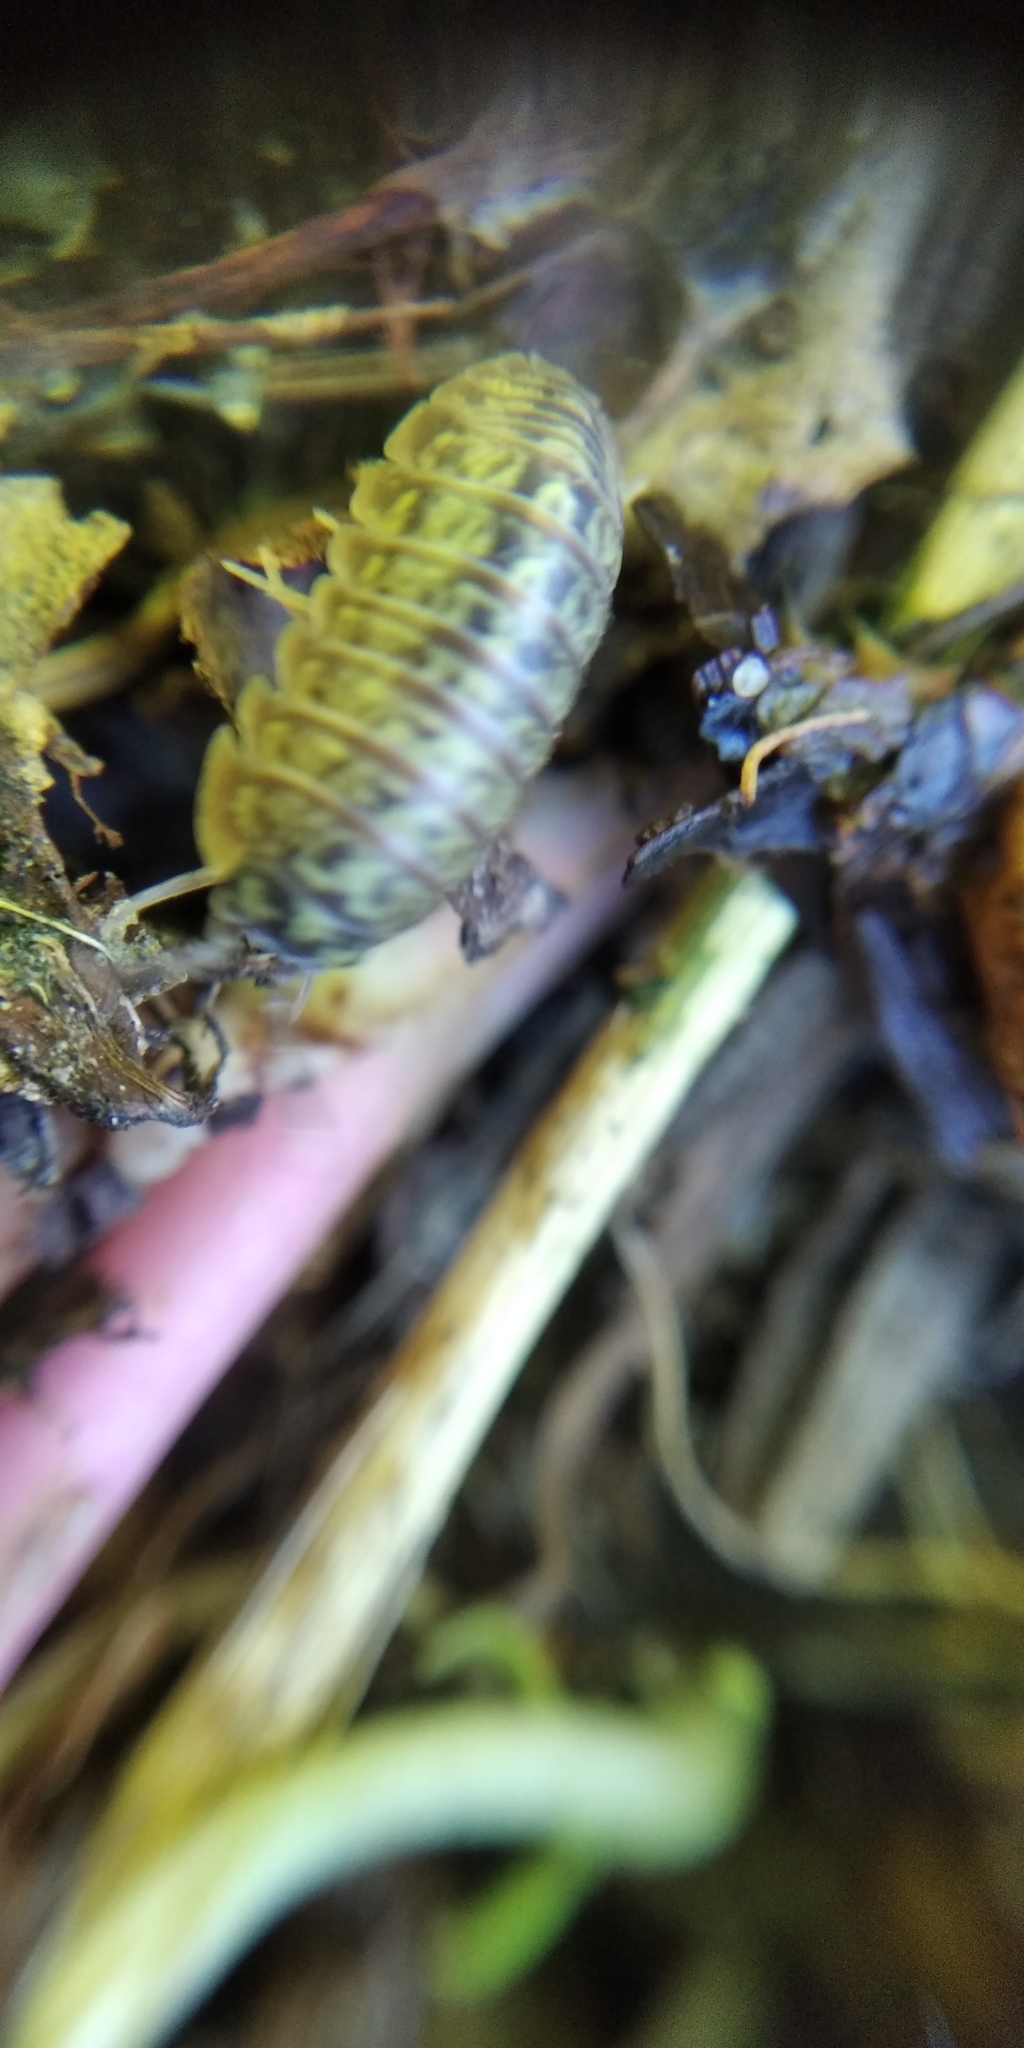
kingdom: Animalia
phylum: Arthropoda
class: Malacostraca
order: Isopoda
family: Armadillidiidae
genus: Armadillidium
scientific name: Armadillidium versicolor
